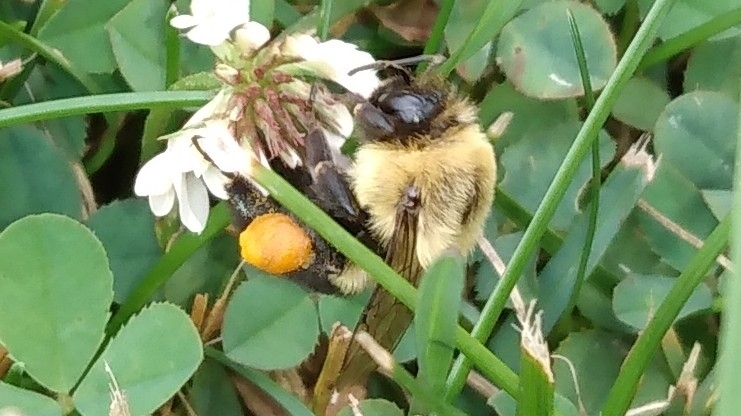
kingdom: Animalia
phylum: Arthropoda
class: Insecta
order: Hymenoptera
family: Apidae
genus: Bombus
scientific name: Bombus impatiens
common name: Common eastern bumble bee
